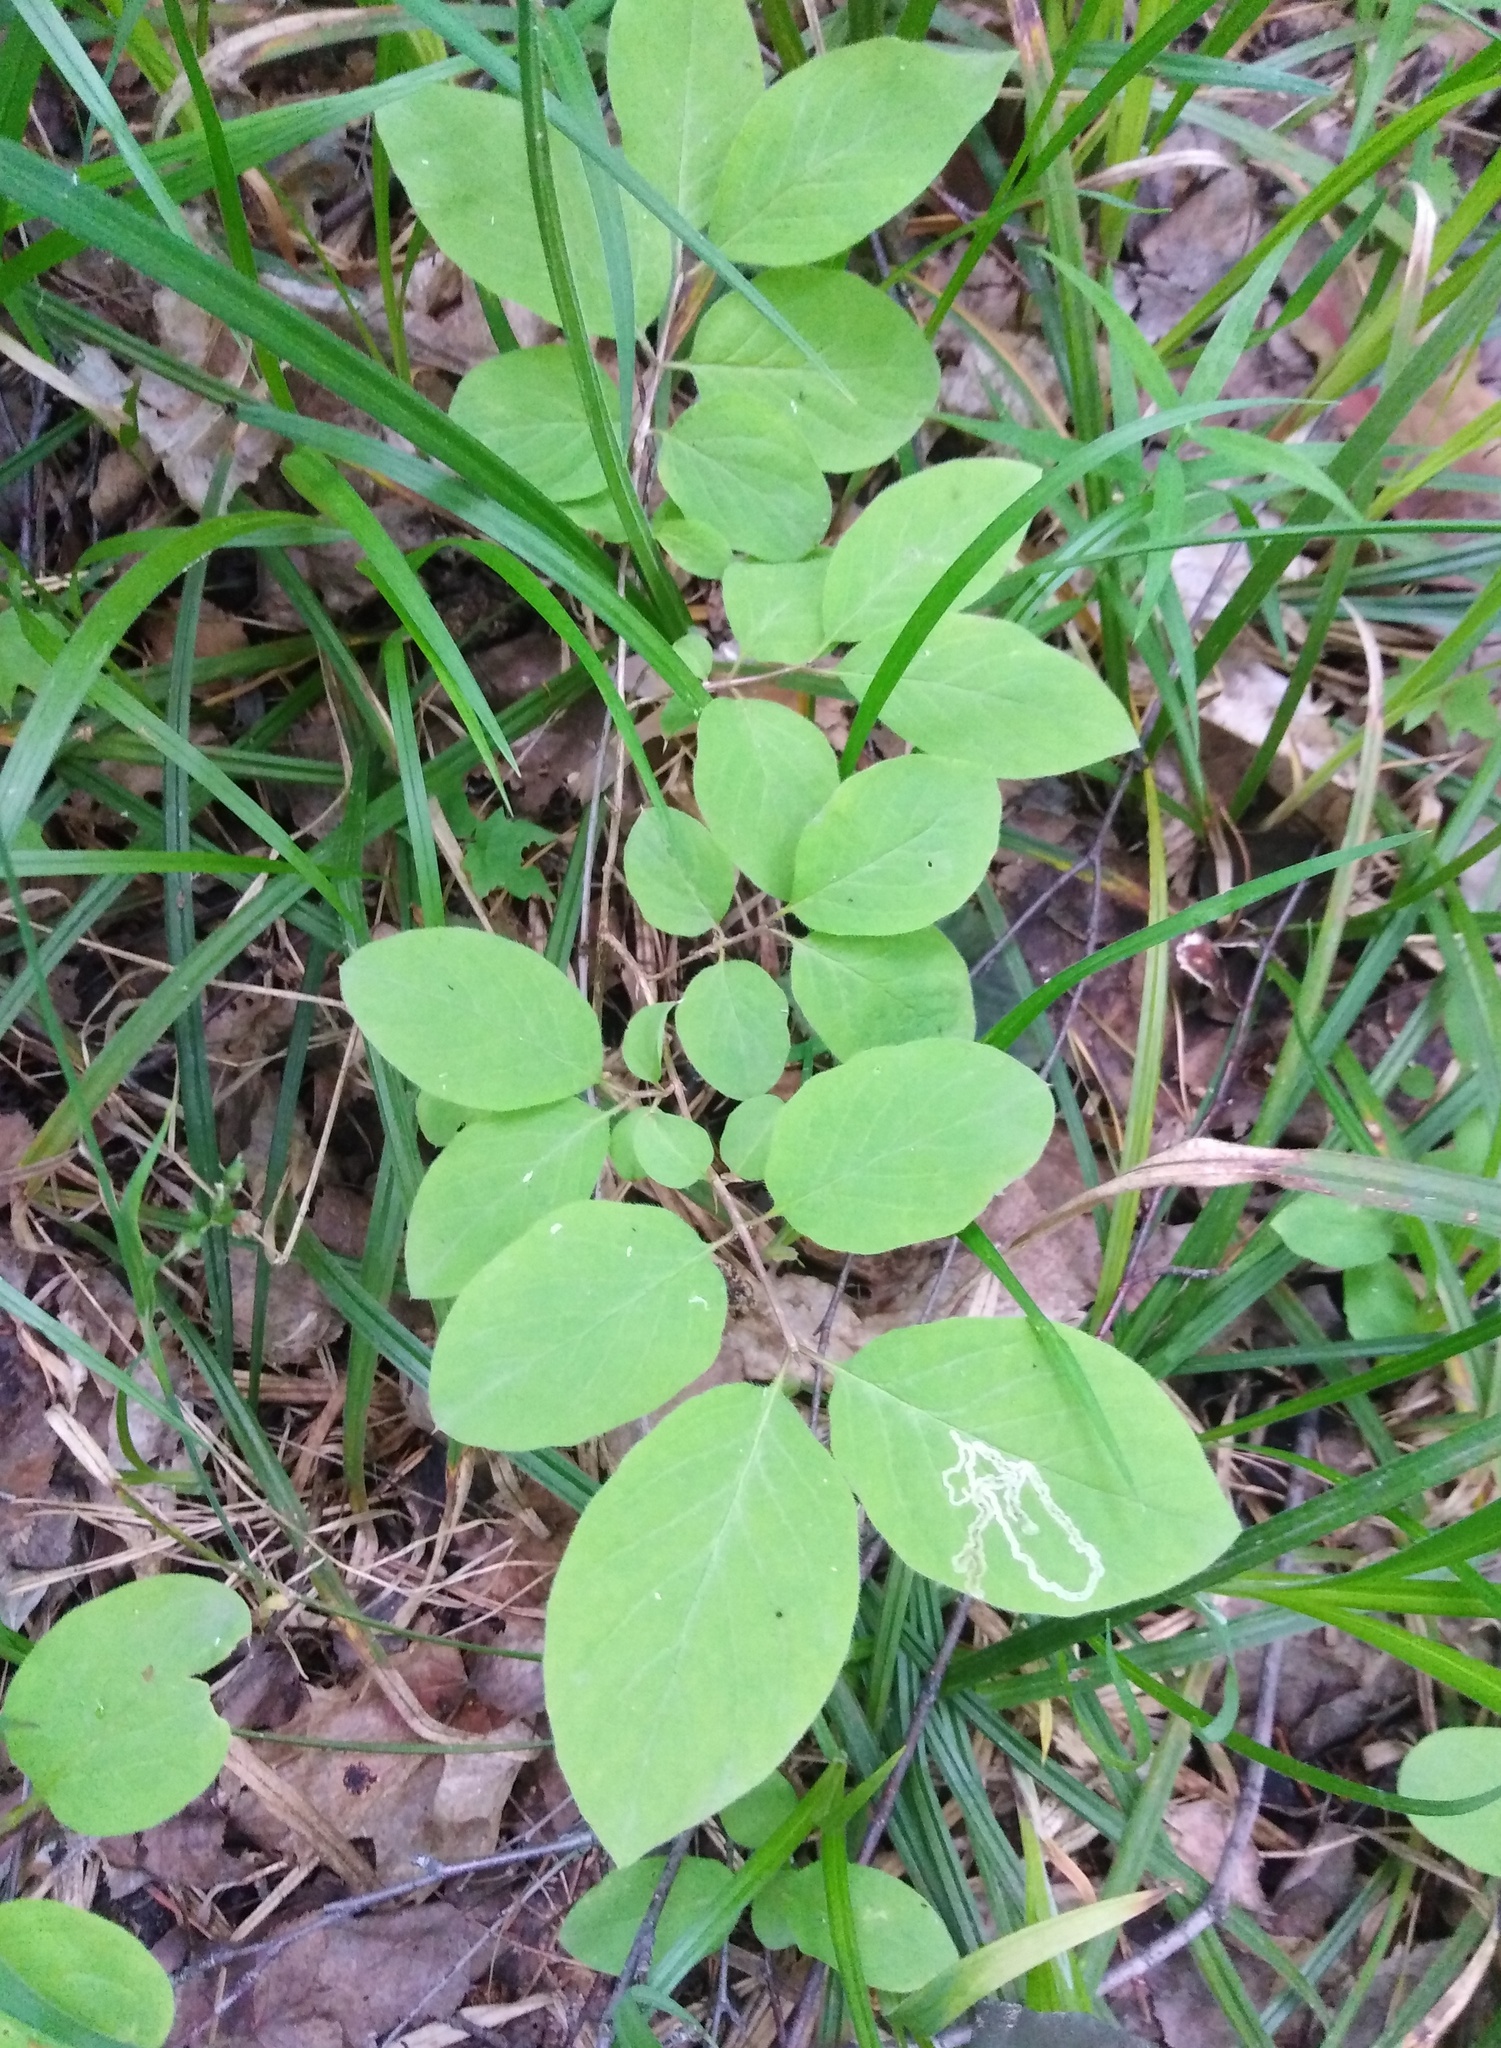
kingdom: Plantae
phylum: Tracheophyta
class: Magnoliopsida
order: Dipsacales
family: Caprifoliaceae
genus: Lonicera
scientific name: Lonicera xylosteum
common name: Fly honeysuckle
